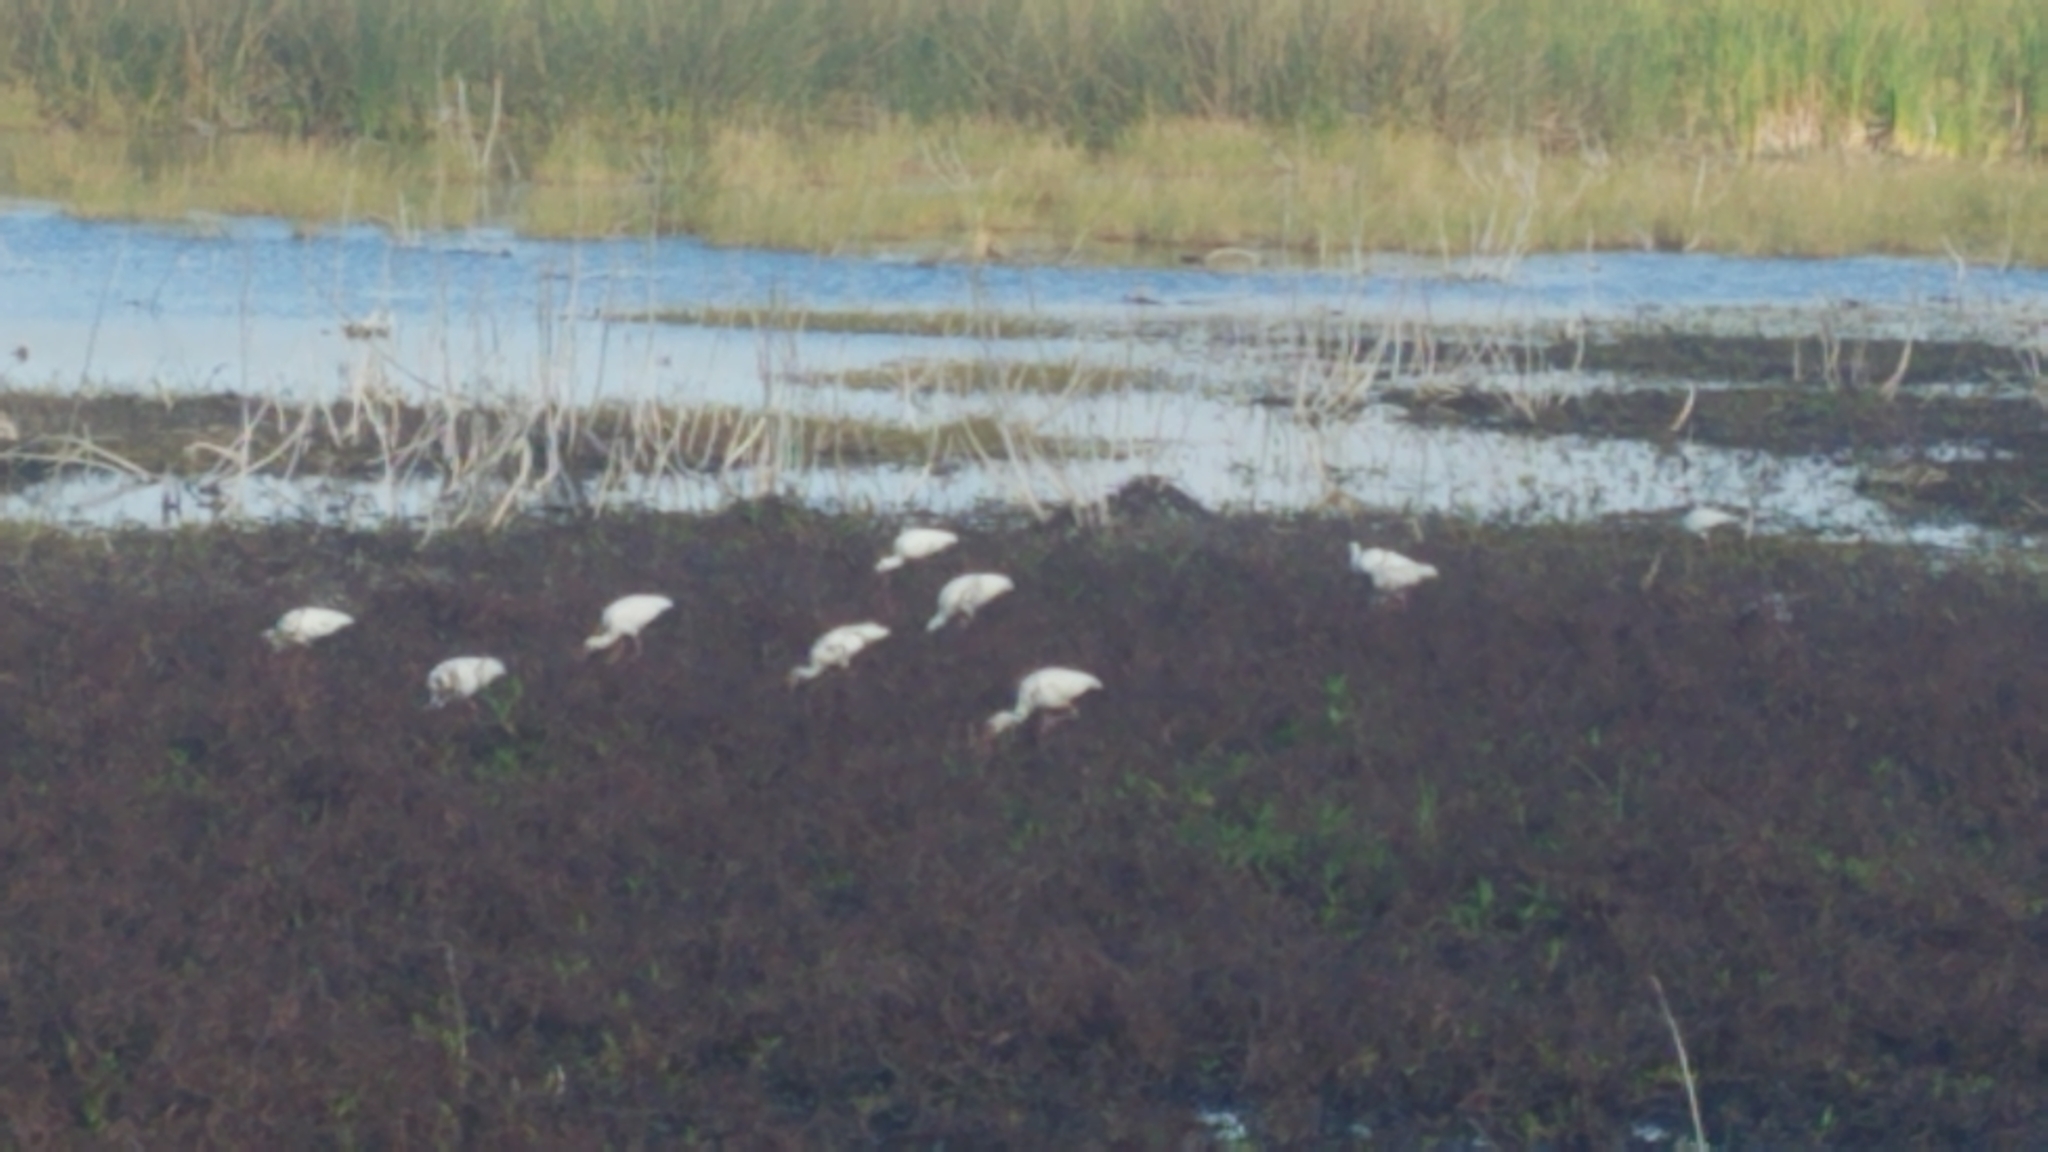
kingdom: Animalia
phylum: Chordata
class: Aves
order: Pelecaniformes
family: Threskiornithidae
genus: Eudocimus
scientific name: Eudocimus albus
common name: White ibis
